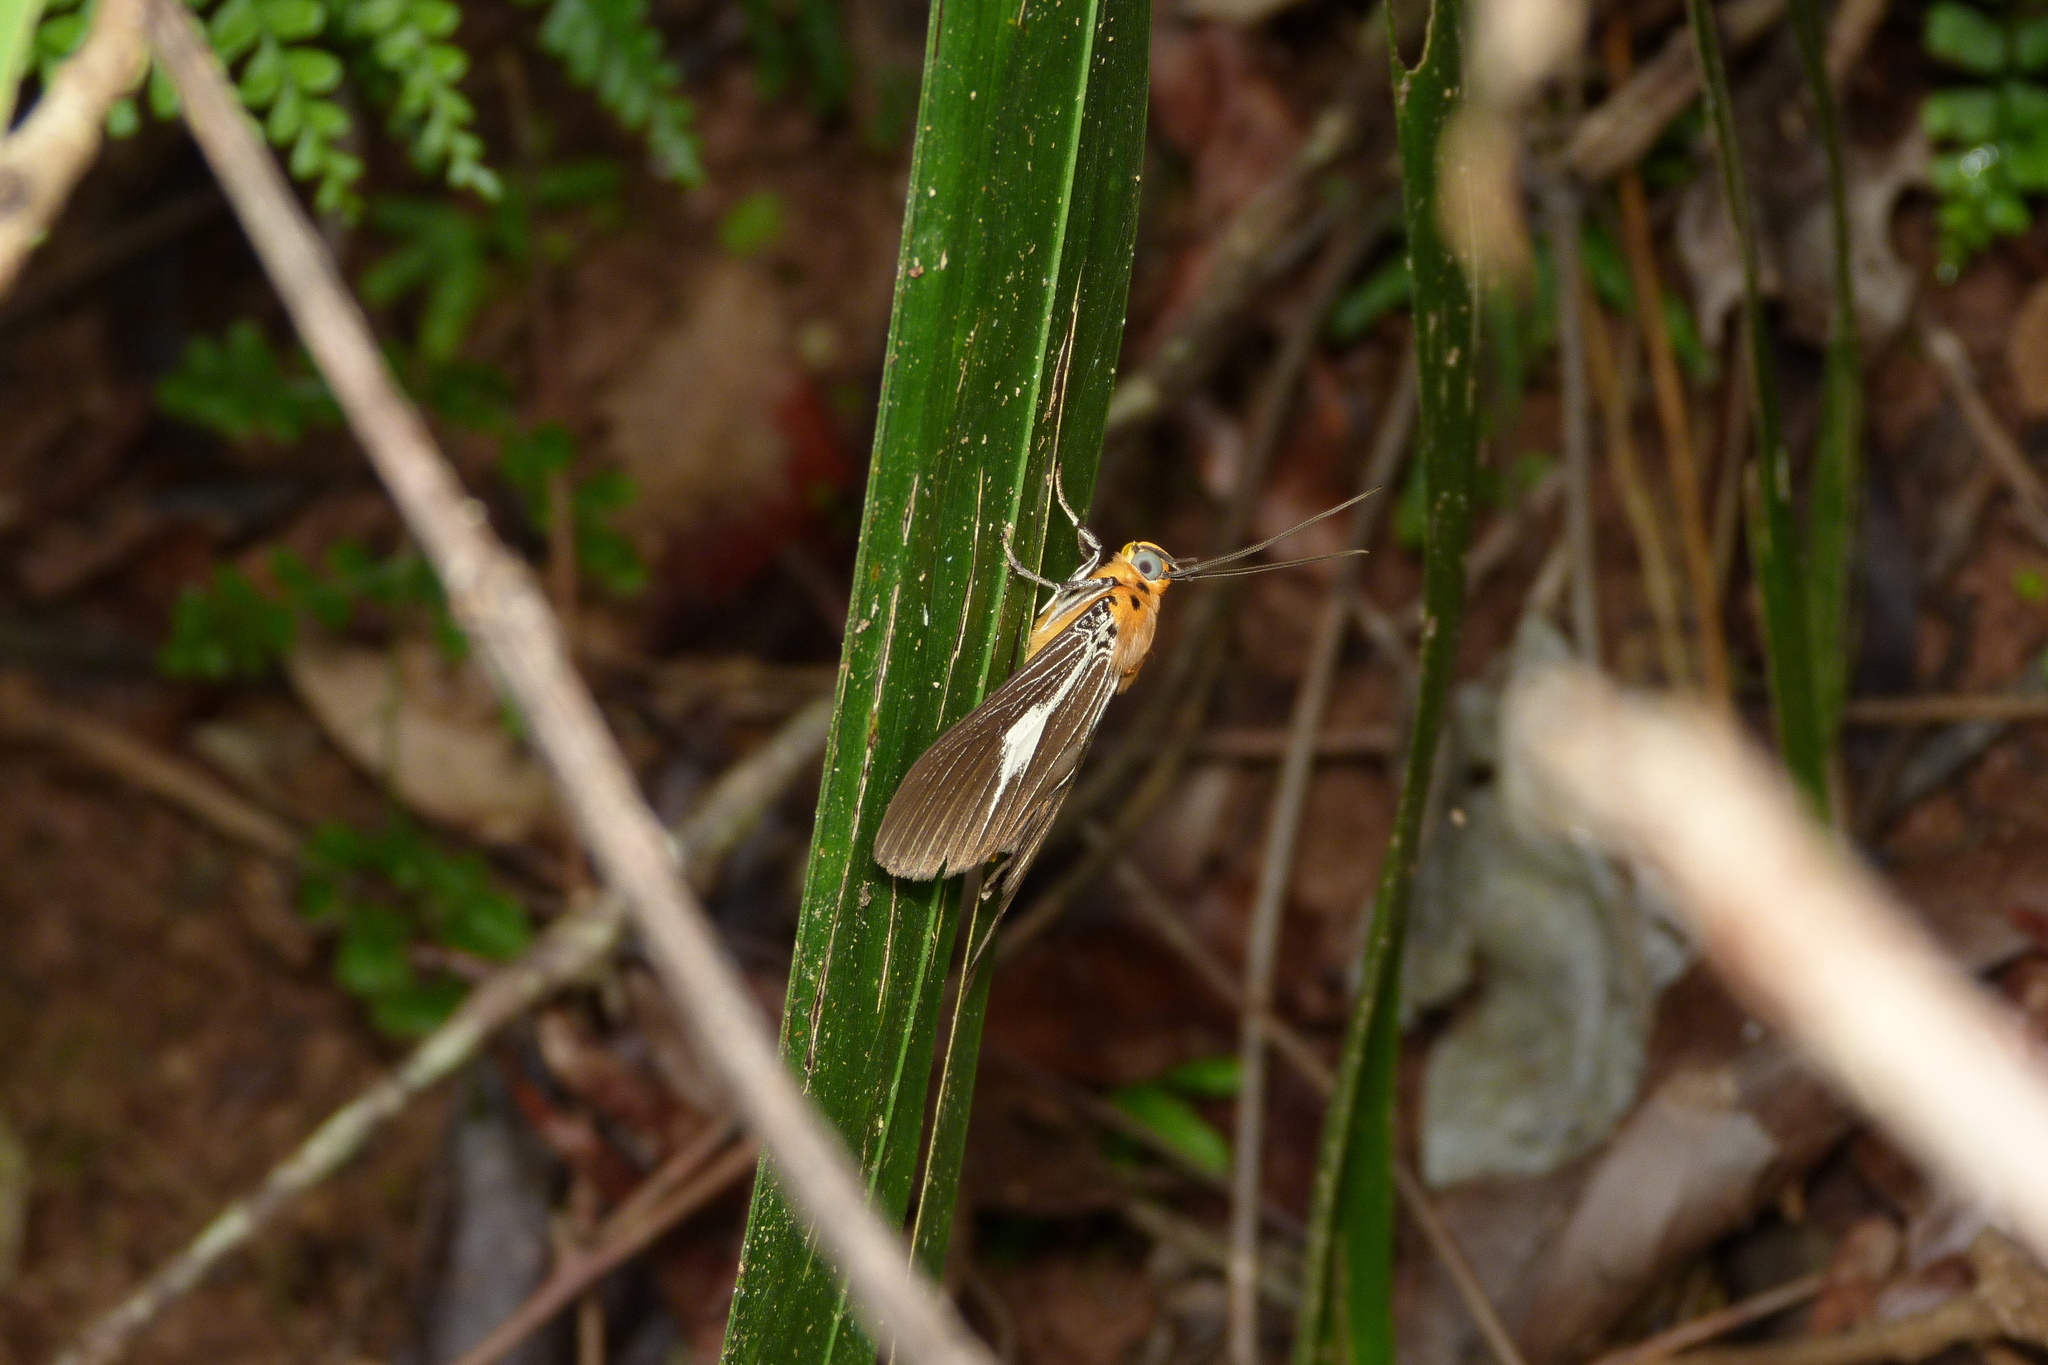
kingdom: Animalia
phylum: Arthropoda
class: Insecta
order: Lepidoptera
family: Erebidae
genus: Asota
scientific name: Asota heliconia
